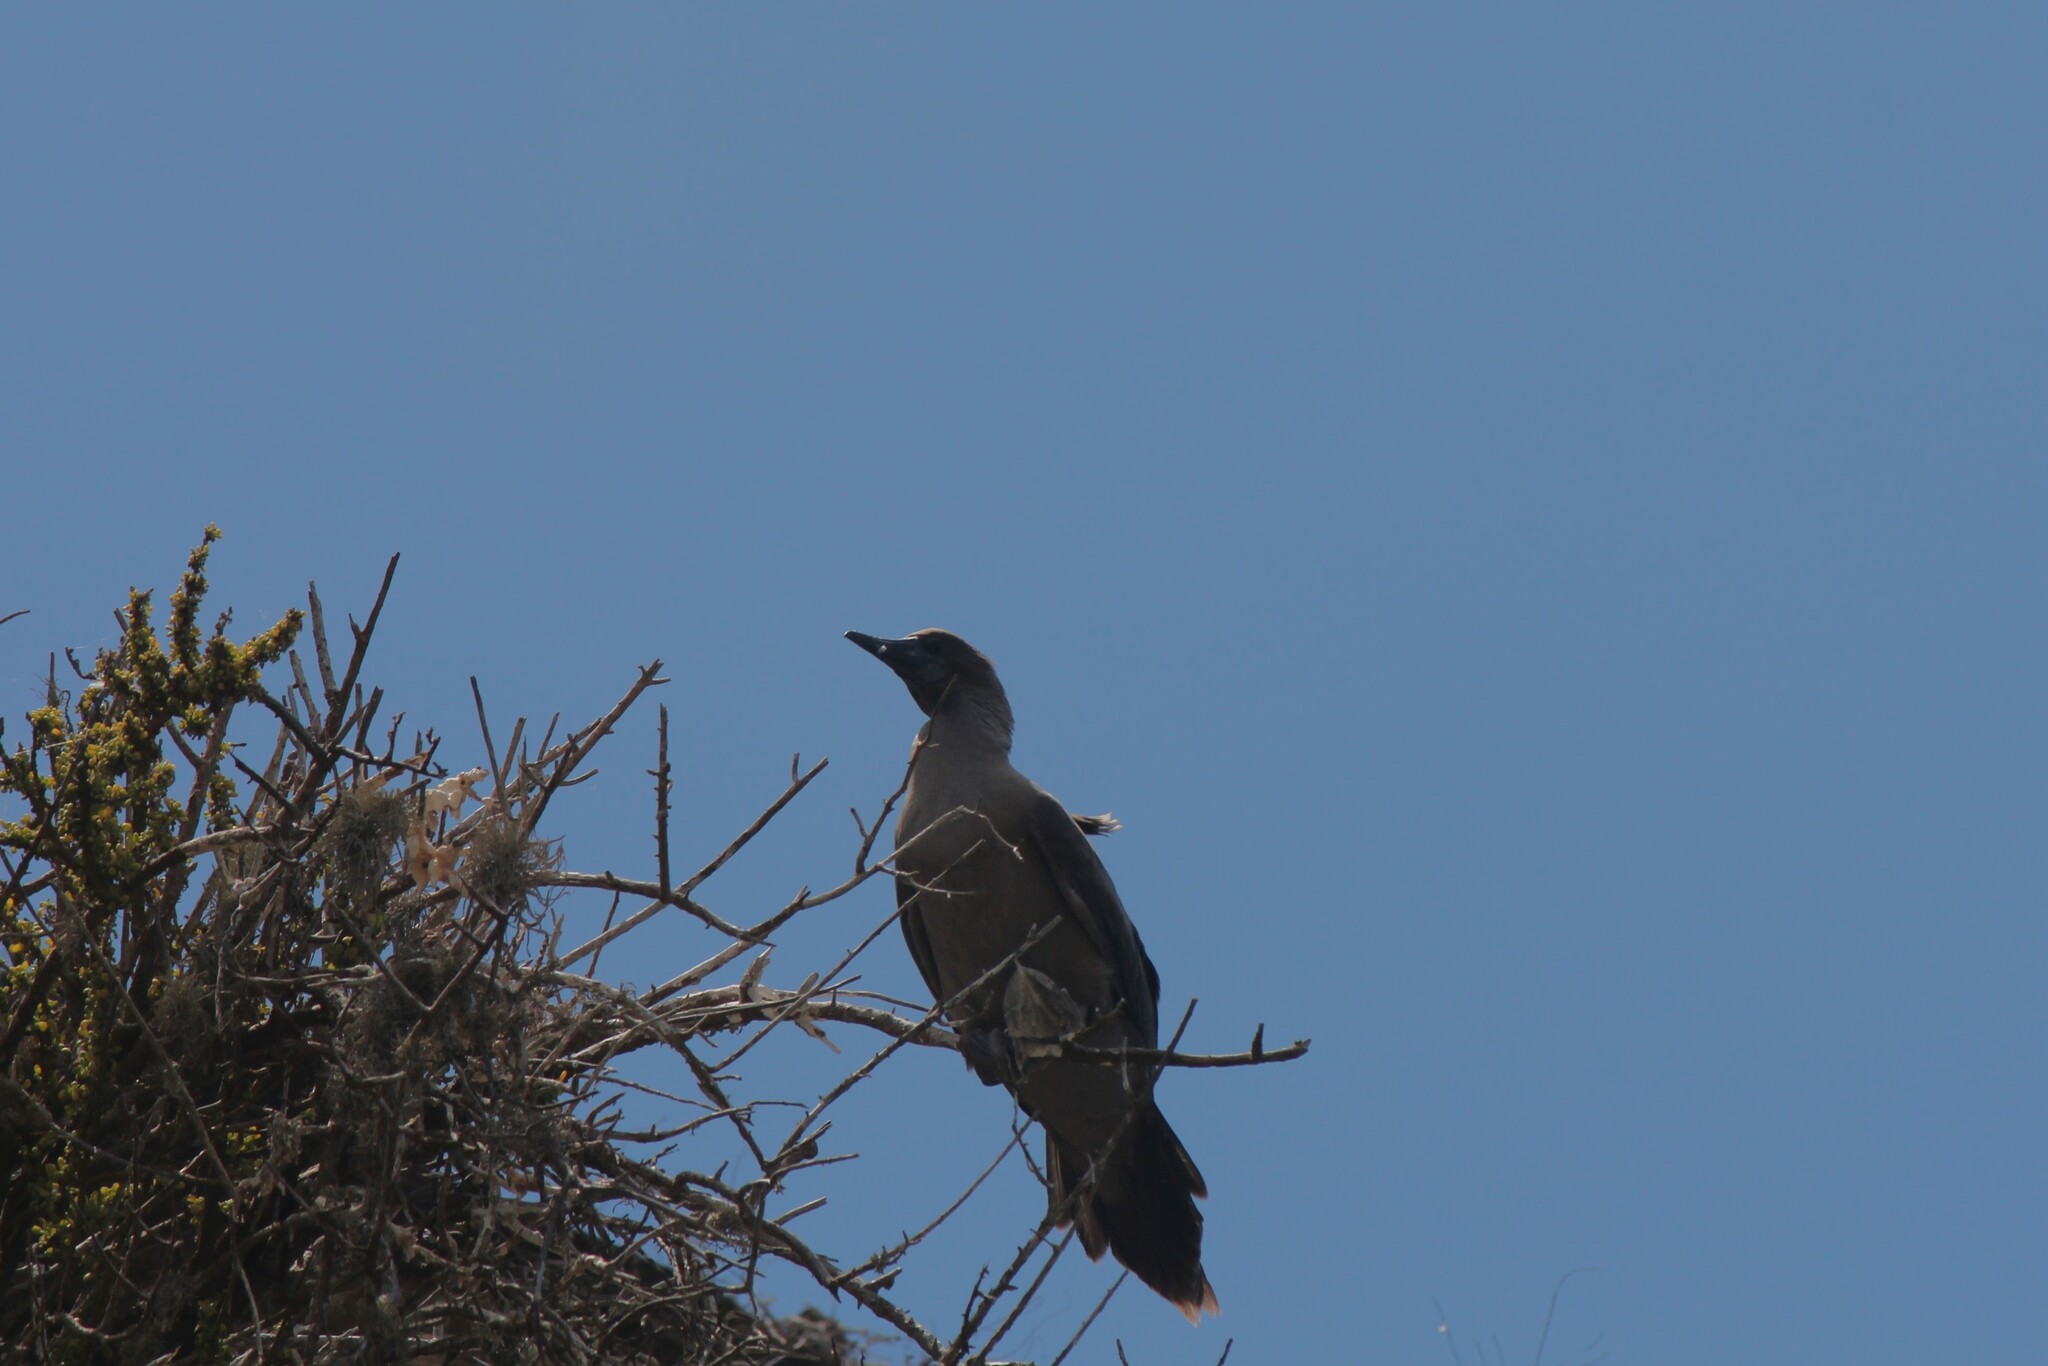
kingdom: Animalia
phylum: Chordata
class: Aves
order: Suliformes
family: Sulidae
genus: Sula
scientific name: Sula sula
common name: Red-footed booby
